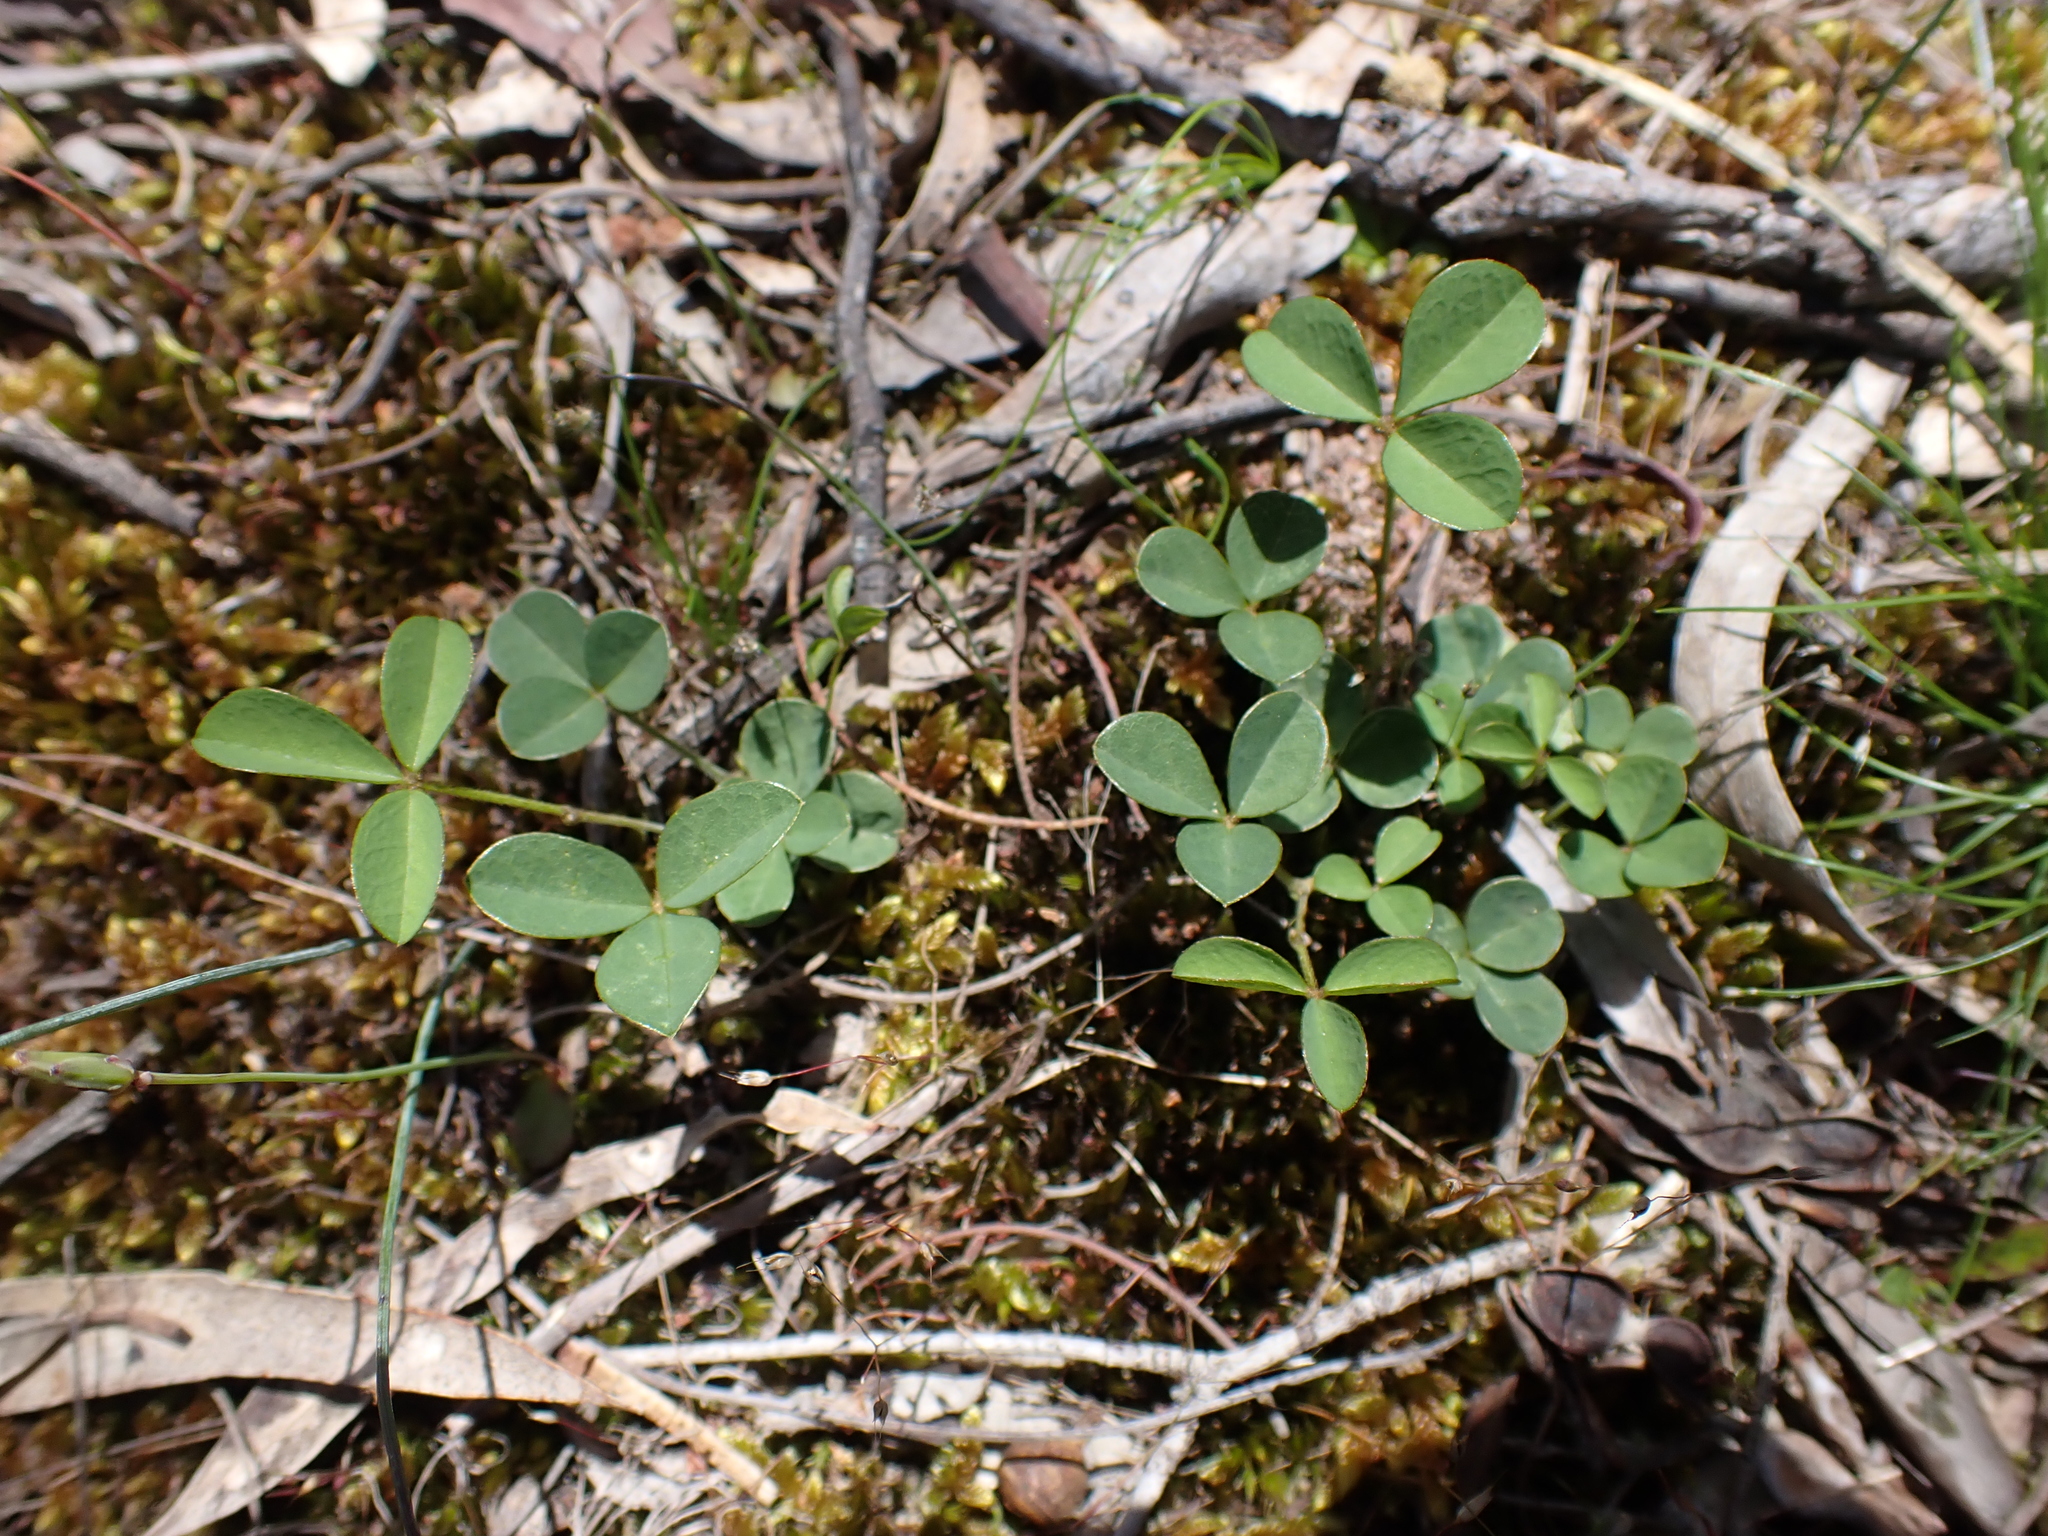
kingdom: Plantae
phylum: Tracheophyta
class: Magnoliopsida
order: Fabales
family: Fabaceae
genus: Glycine
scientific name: Glycine latrobeana
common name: Clover glycine
